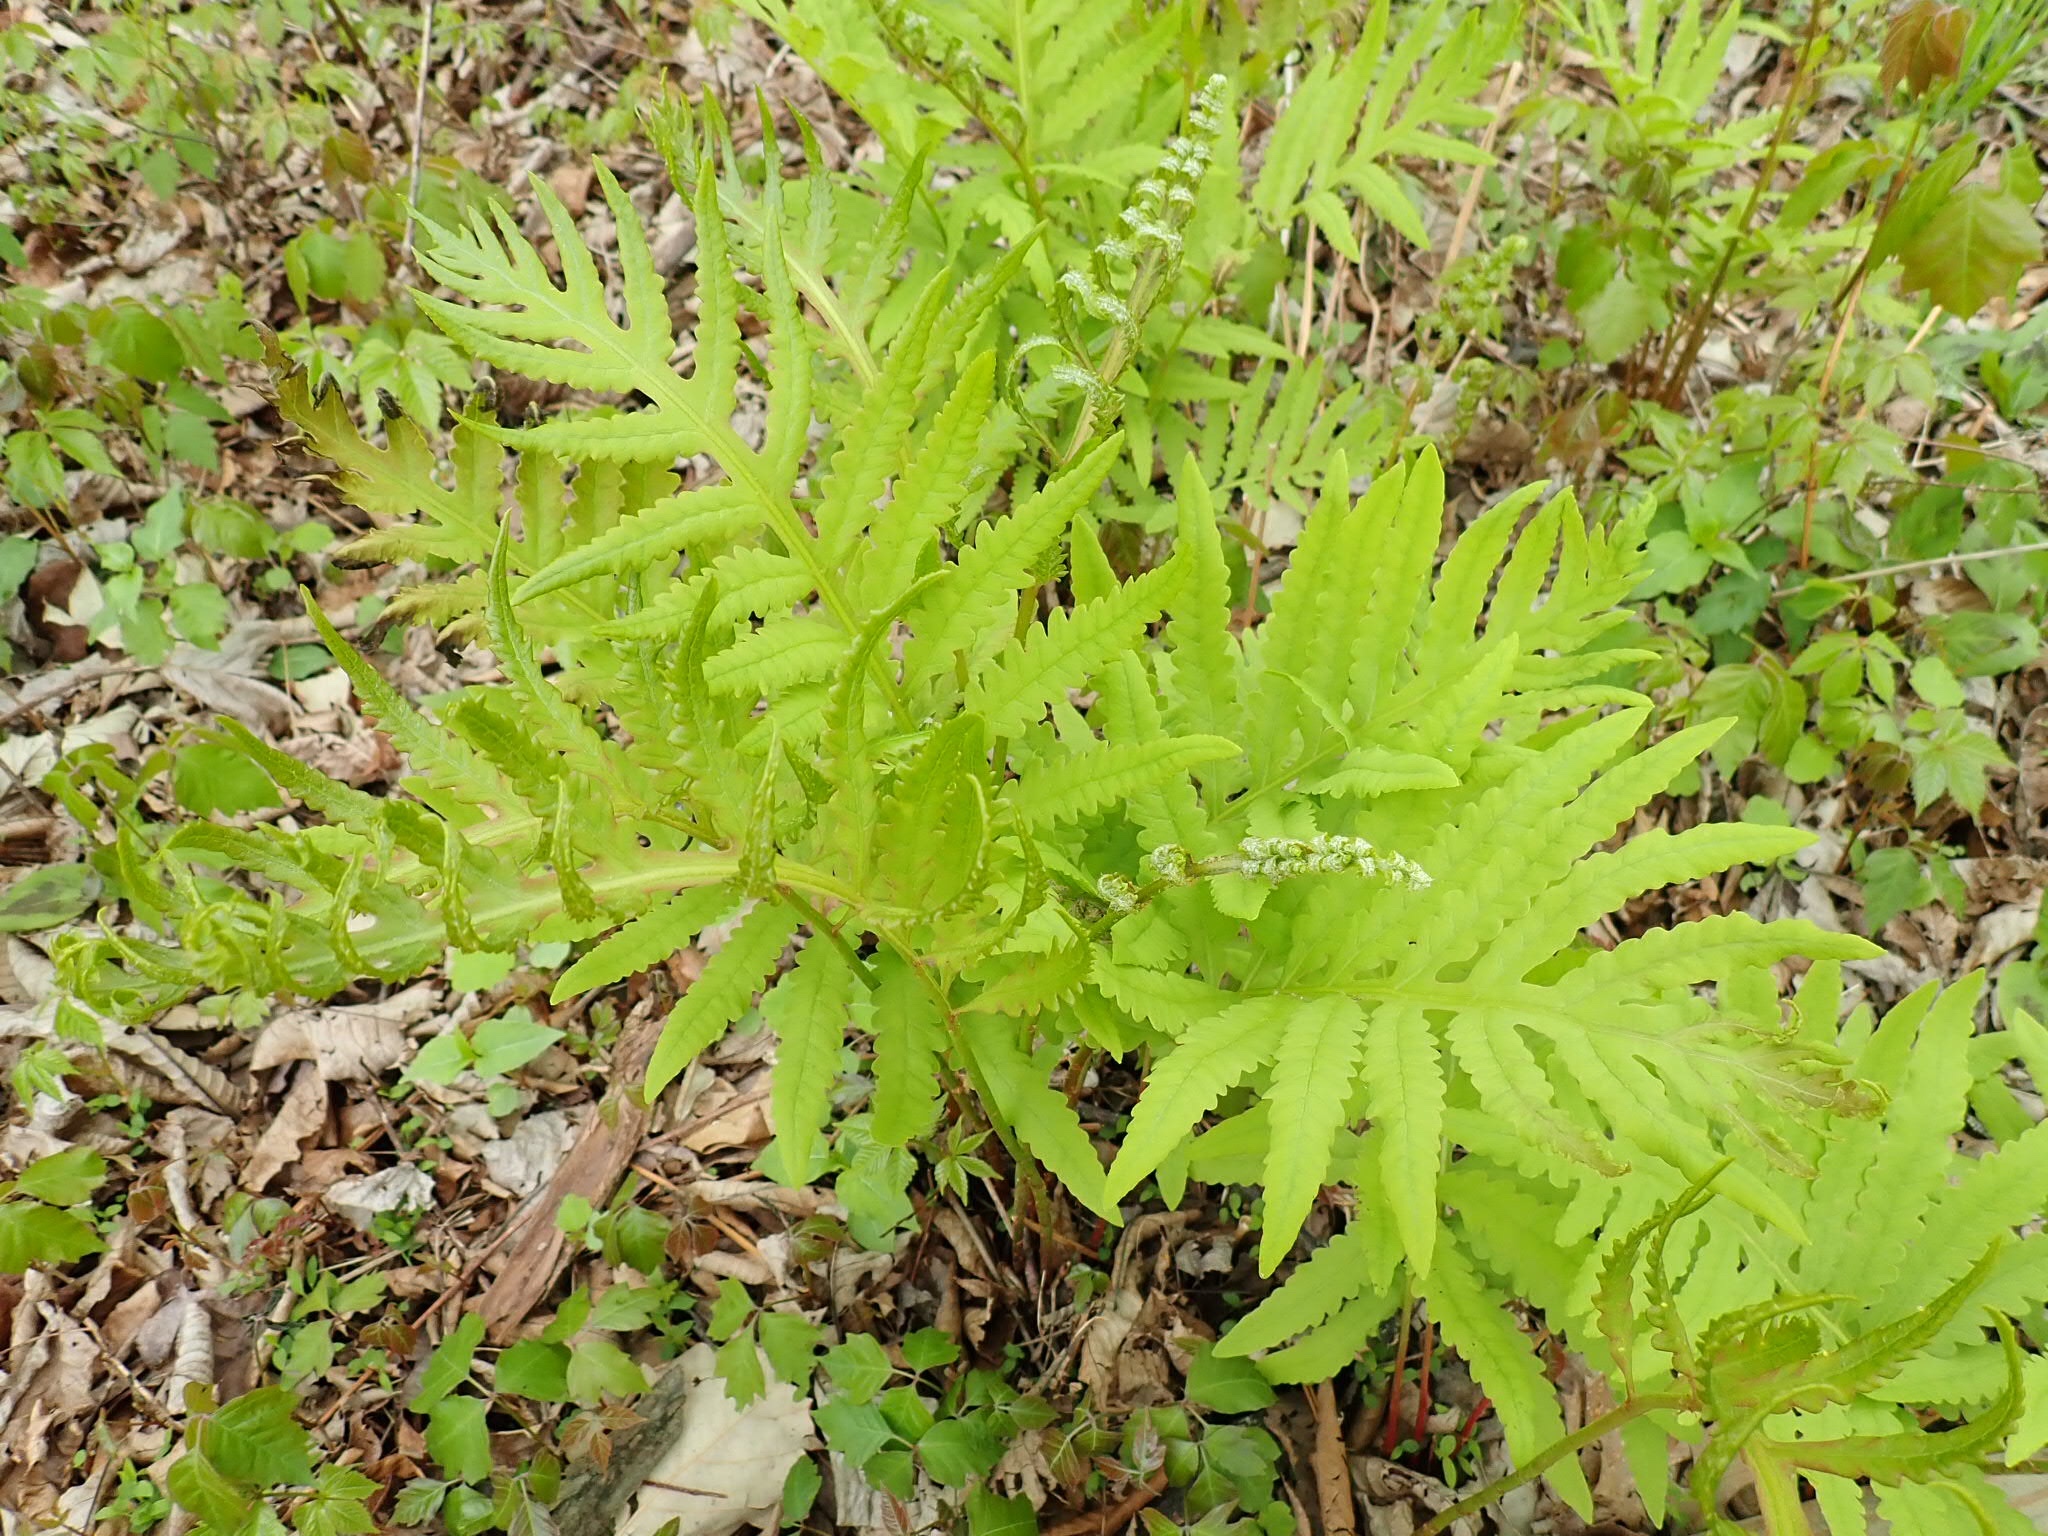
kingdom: Plantae
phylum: Tracheophyta
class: Polypodiopsida
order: Polypodiales
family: Onocleaceae
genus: Onoclea
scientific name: Onoclea sensibilis
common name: Sensitive fern
